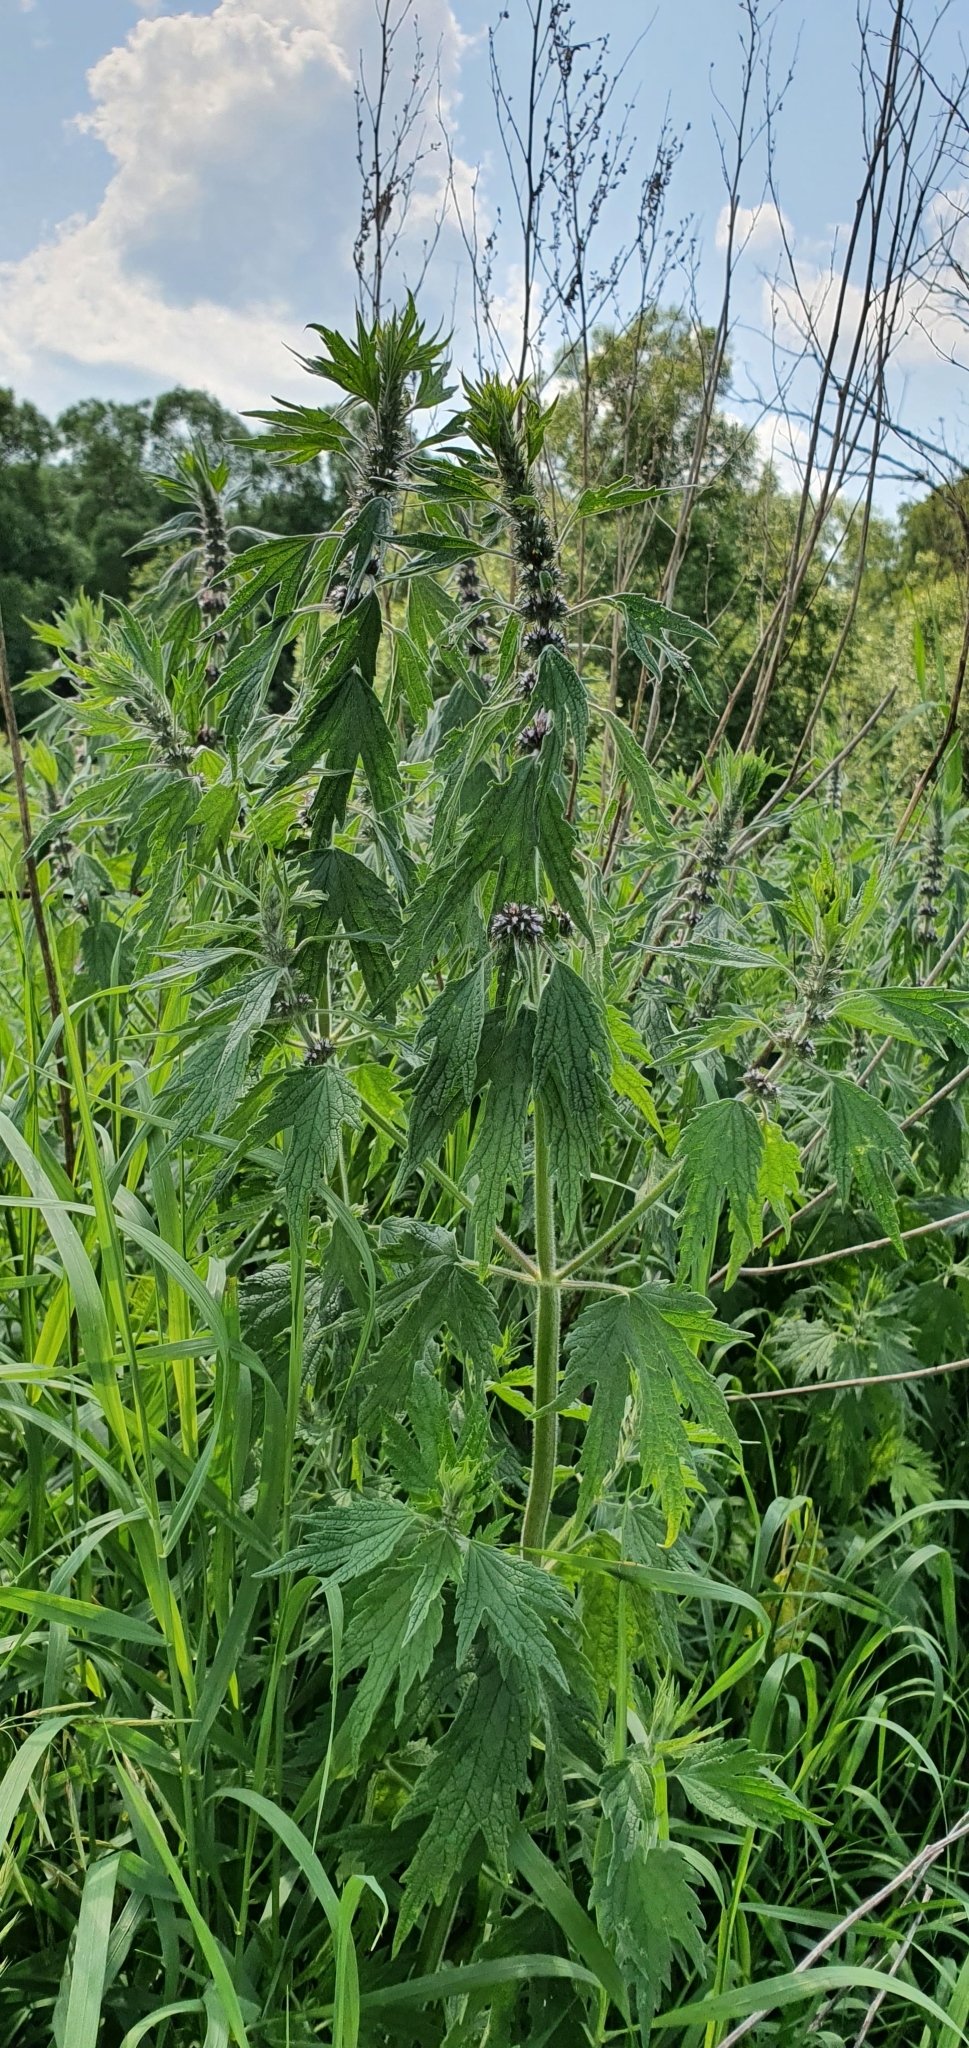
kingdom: Plantae
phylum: Tracheophyta
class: Magnoliopsida
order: Lamiales
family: Lamiaceae
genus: Leonurus
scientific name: Leonurus quinquelobatus
